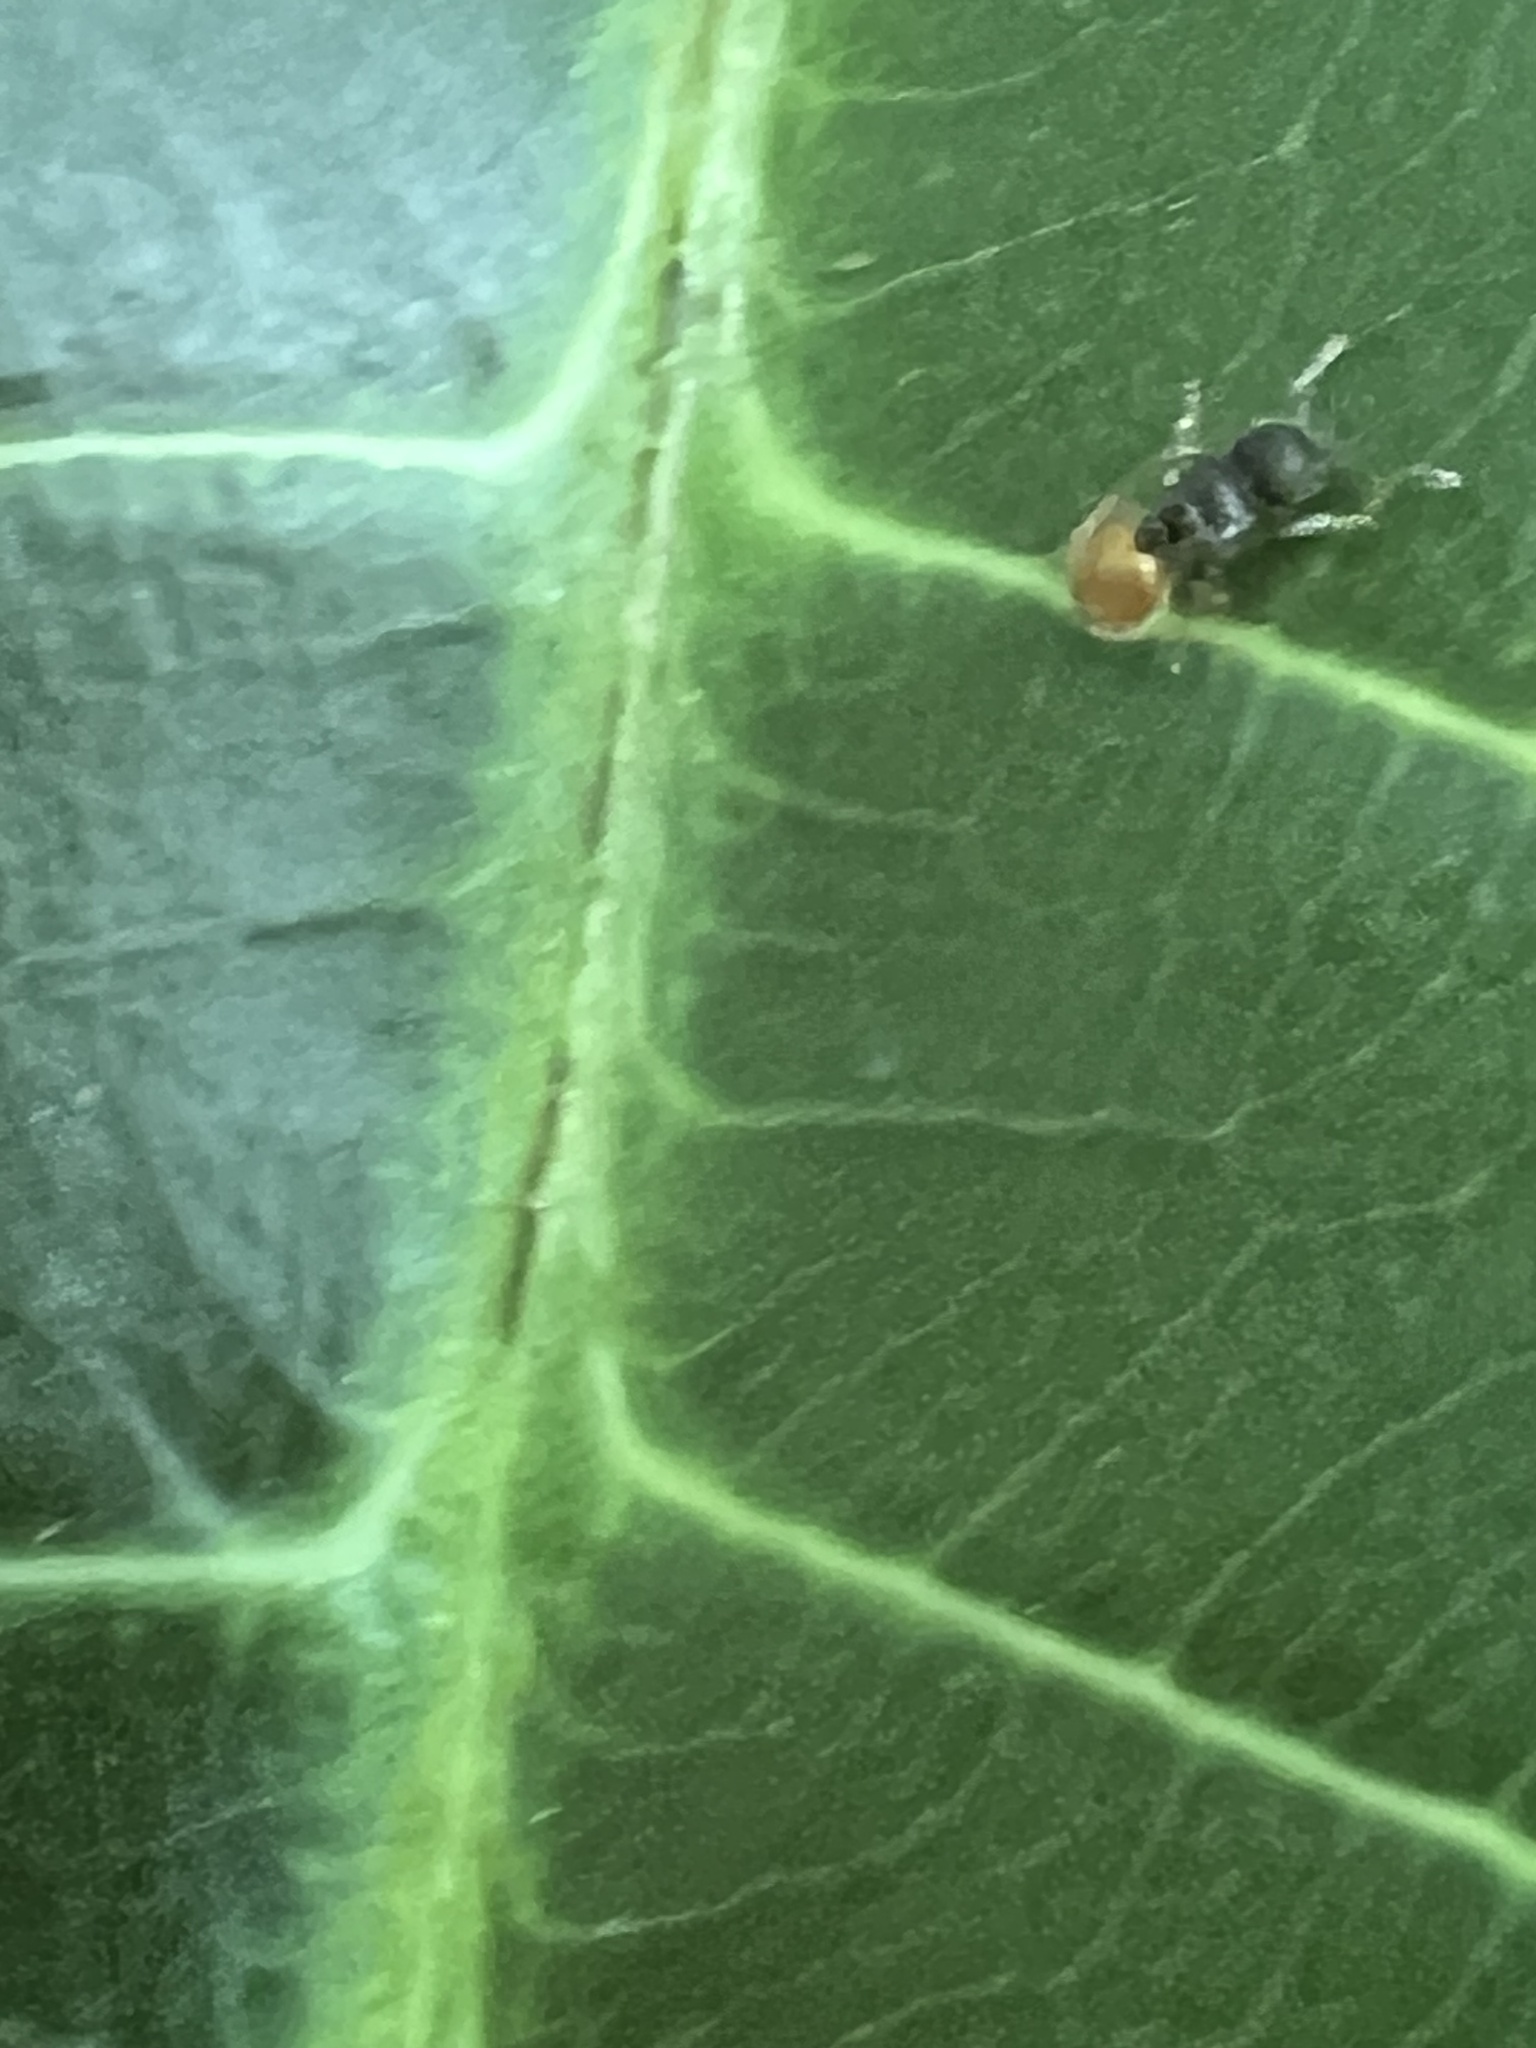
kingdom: Animalia
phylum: Arthropoda
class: Insecta
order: Hymenoptera
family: Formicidae
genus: Meranoplus
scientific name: Meranoplus hirsutus
